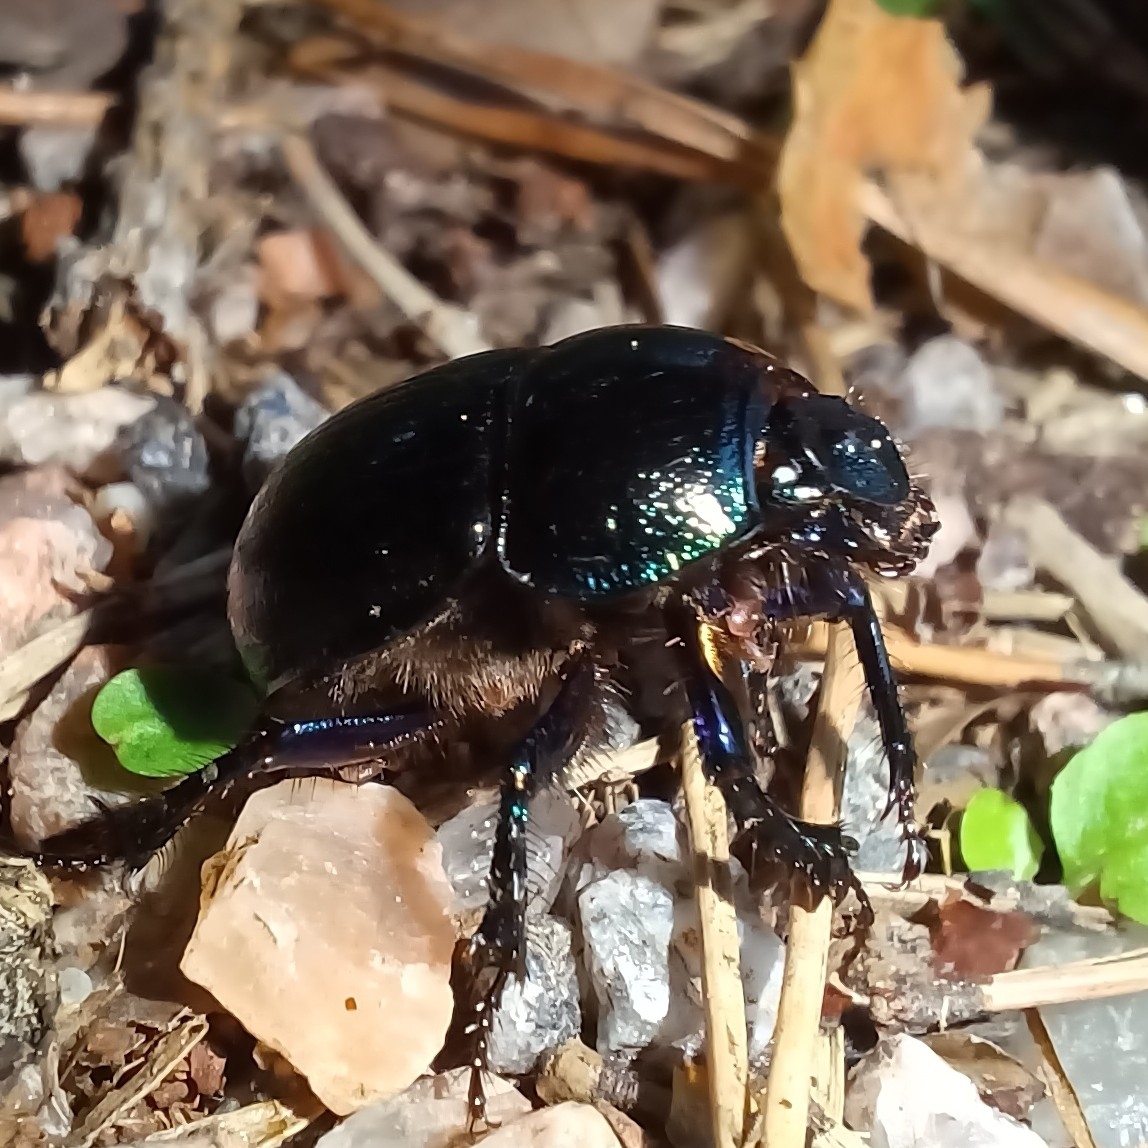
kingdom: Animalia
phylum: Arthropoda
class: Insecta
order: Coleoptera
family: Geotrupidae
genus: Anoplotrupes
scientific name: Anoplotrupes stercorosus
